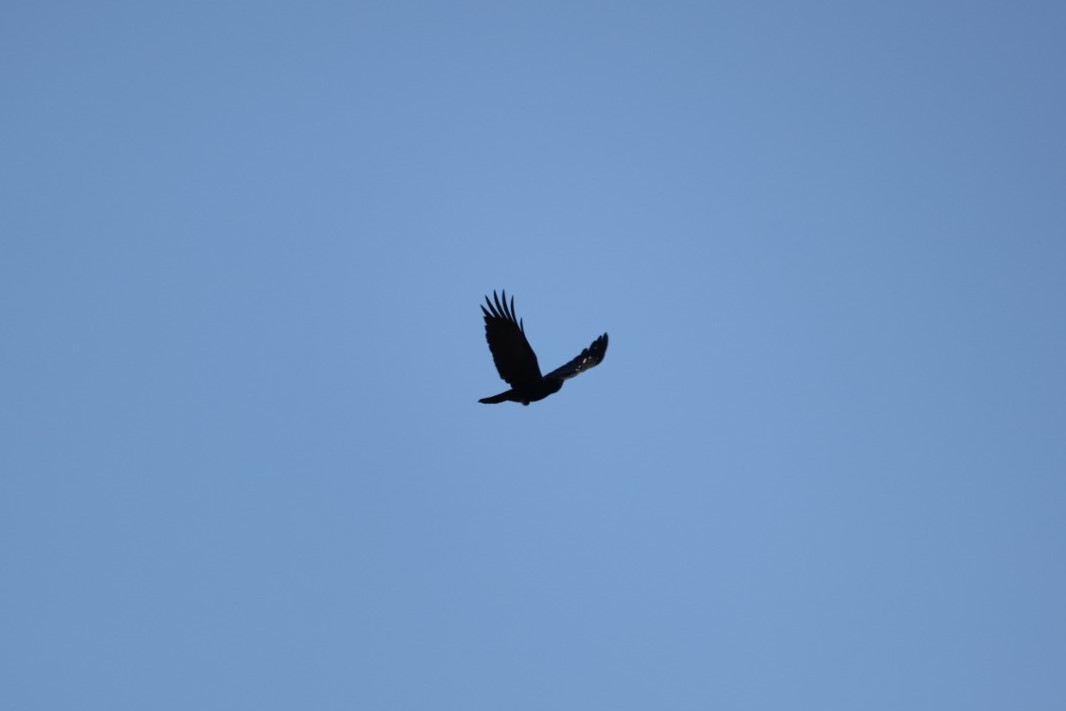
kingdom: Animalia
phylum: Chordata
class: Aves
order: Passeriformes
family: Corvidae
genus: Corvus
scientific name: Corvus corone
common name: Carrion crow
